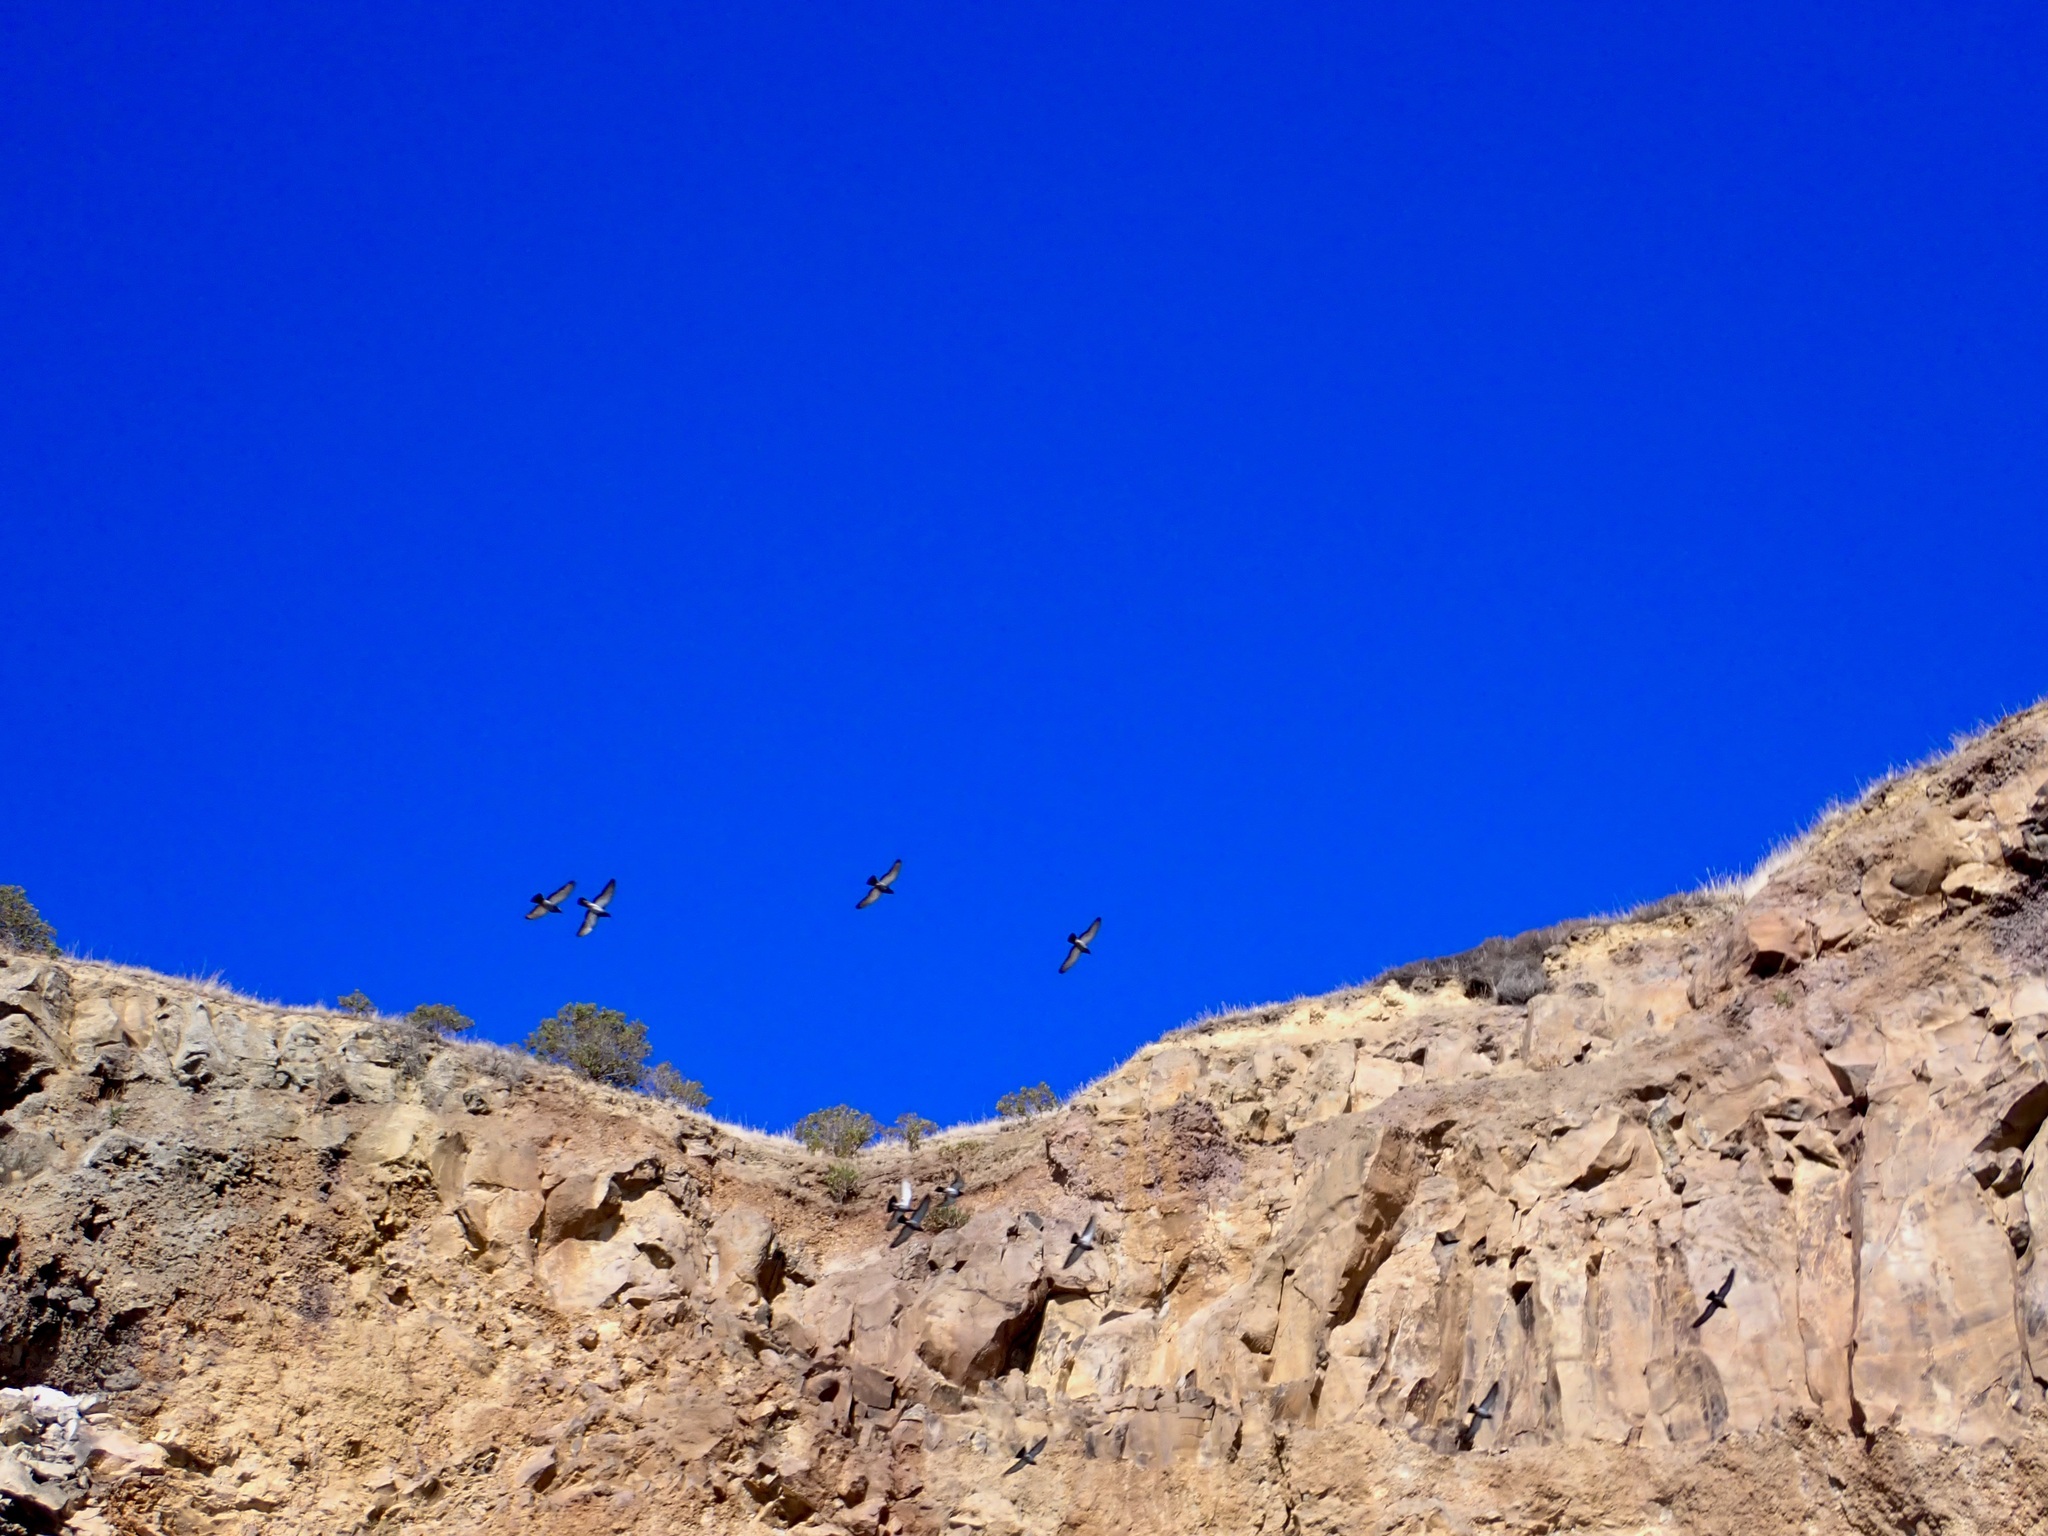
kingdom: Animalia
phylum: Chordata
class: Aves
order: Columbiformes
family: Columbidae
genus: Columba
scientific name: Columba livia
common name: Rock pigeon
